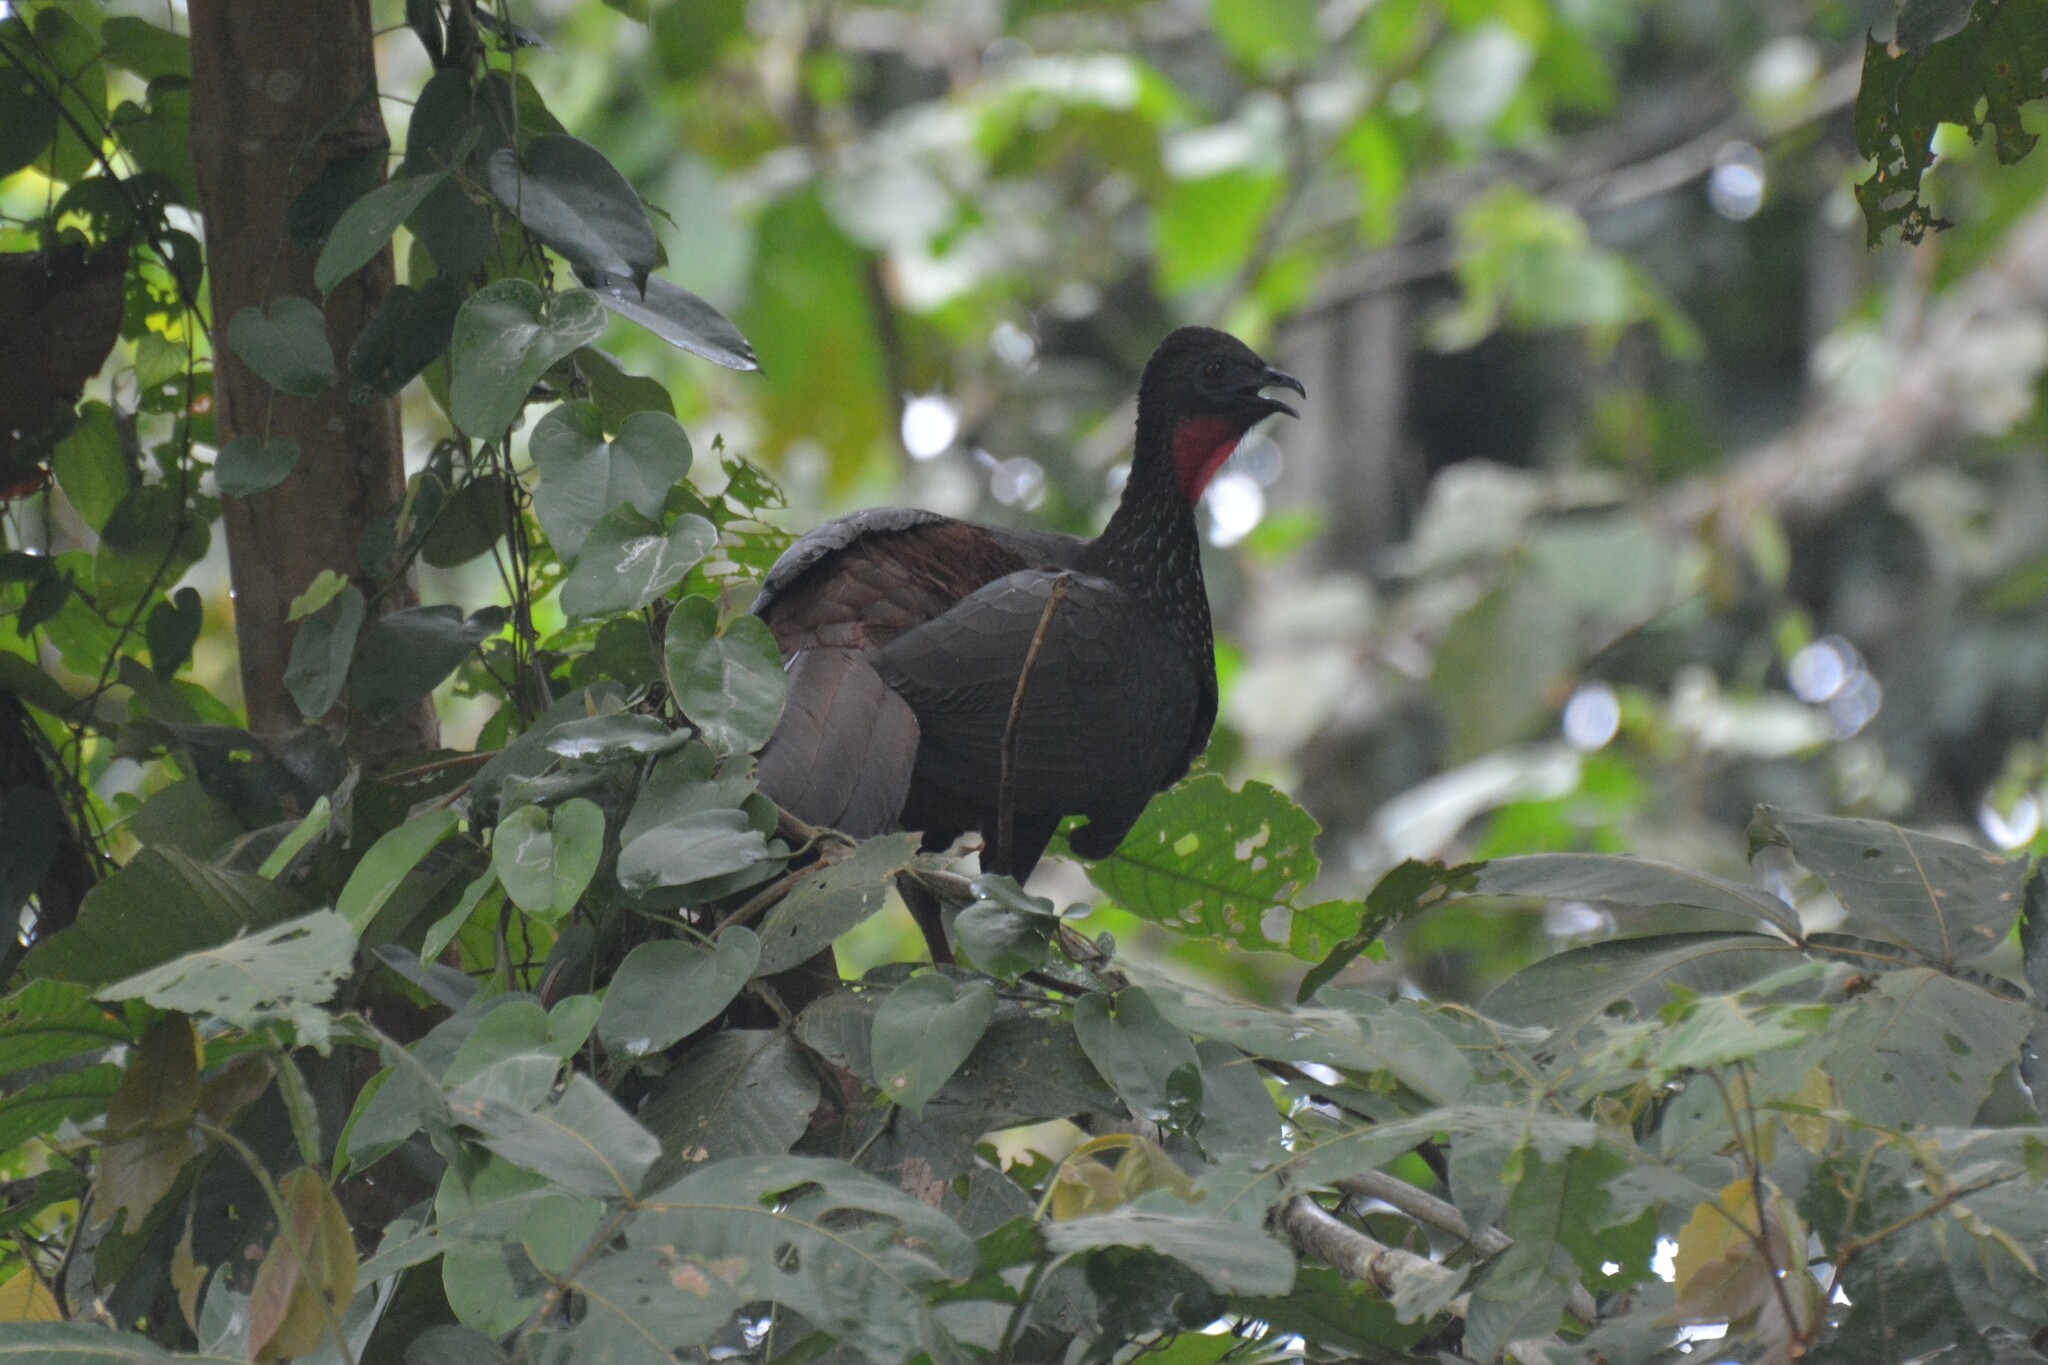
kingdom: Animalia
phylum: Chordata
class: Aves
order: Galliformes
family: Cracidae
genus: Penelope
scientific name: Penelope purpurascens
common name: Crested guan
